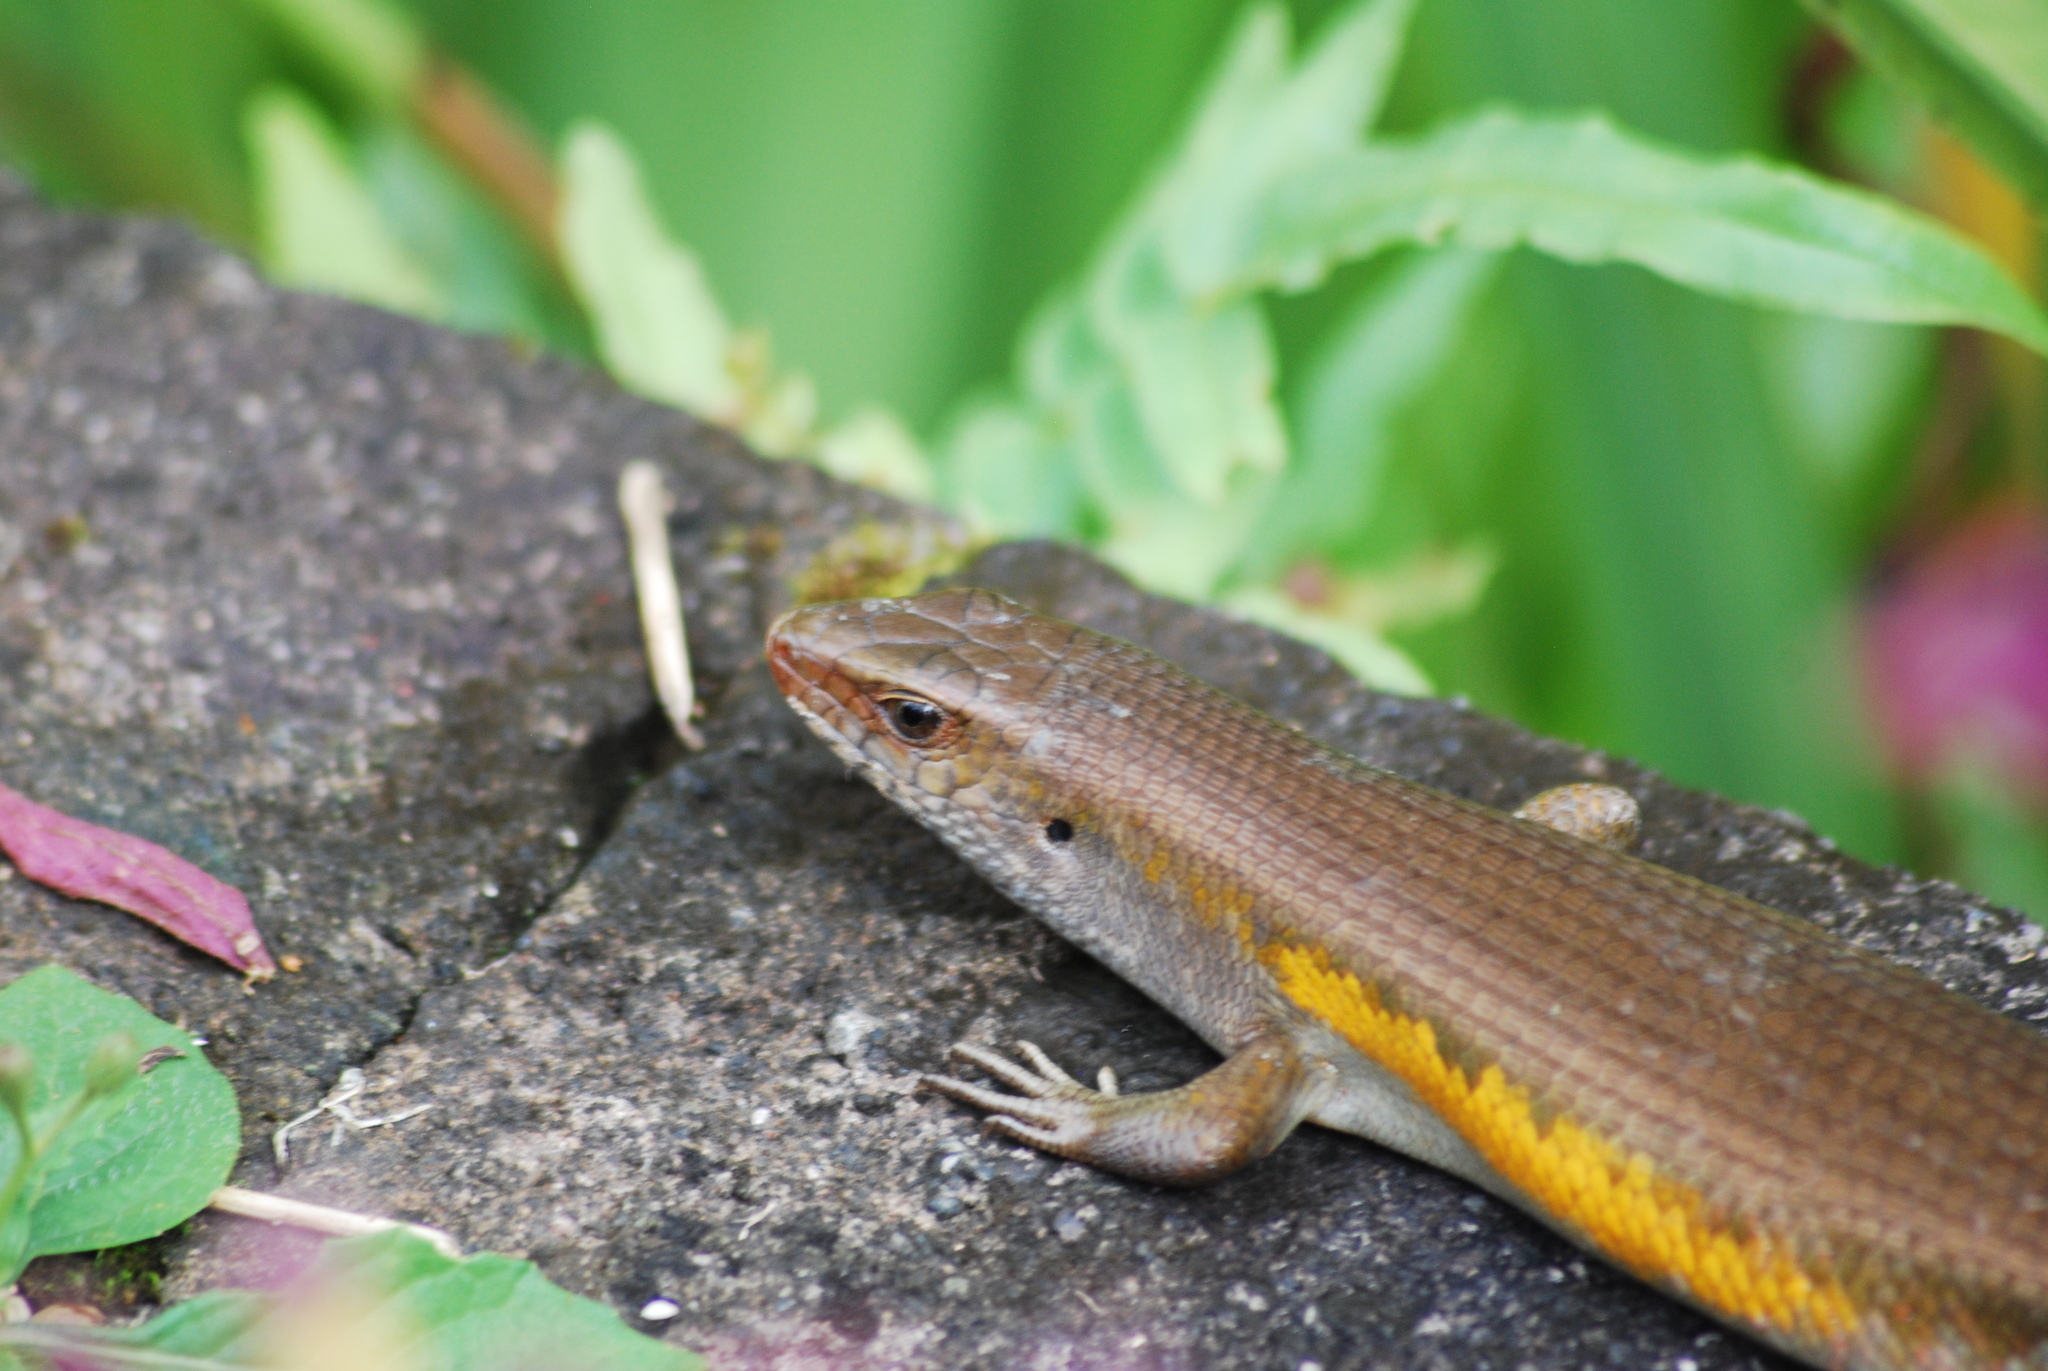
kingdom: Animalia
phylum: Chordata
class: Squamata
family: Scincidae
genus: Eutropis
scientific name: Eutropis multifasciata
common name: Common mabuya
